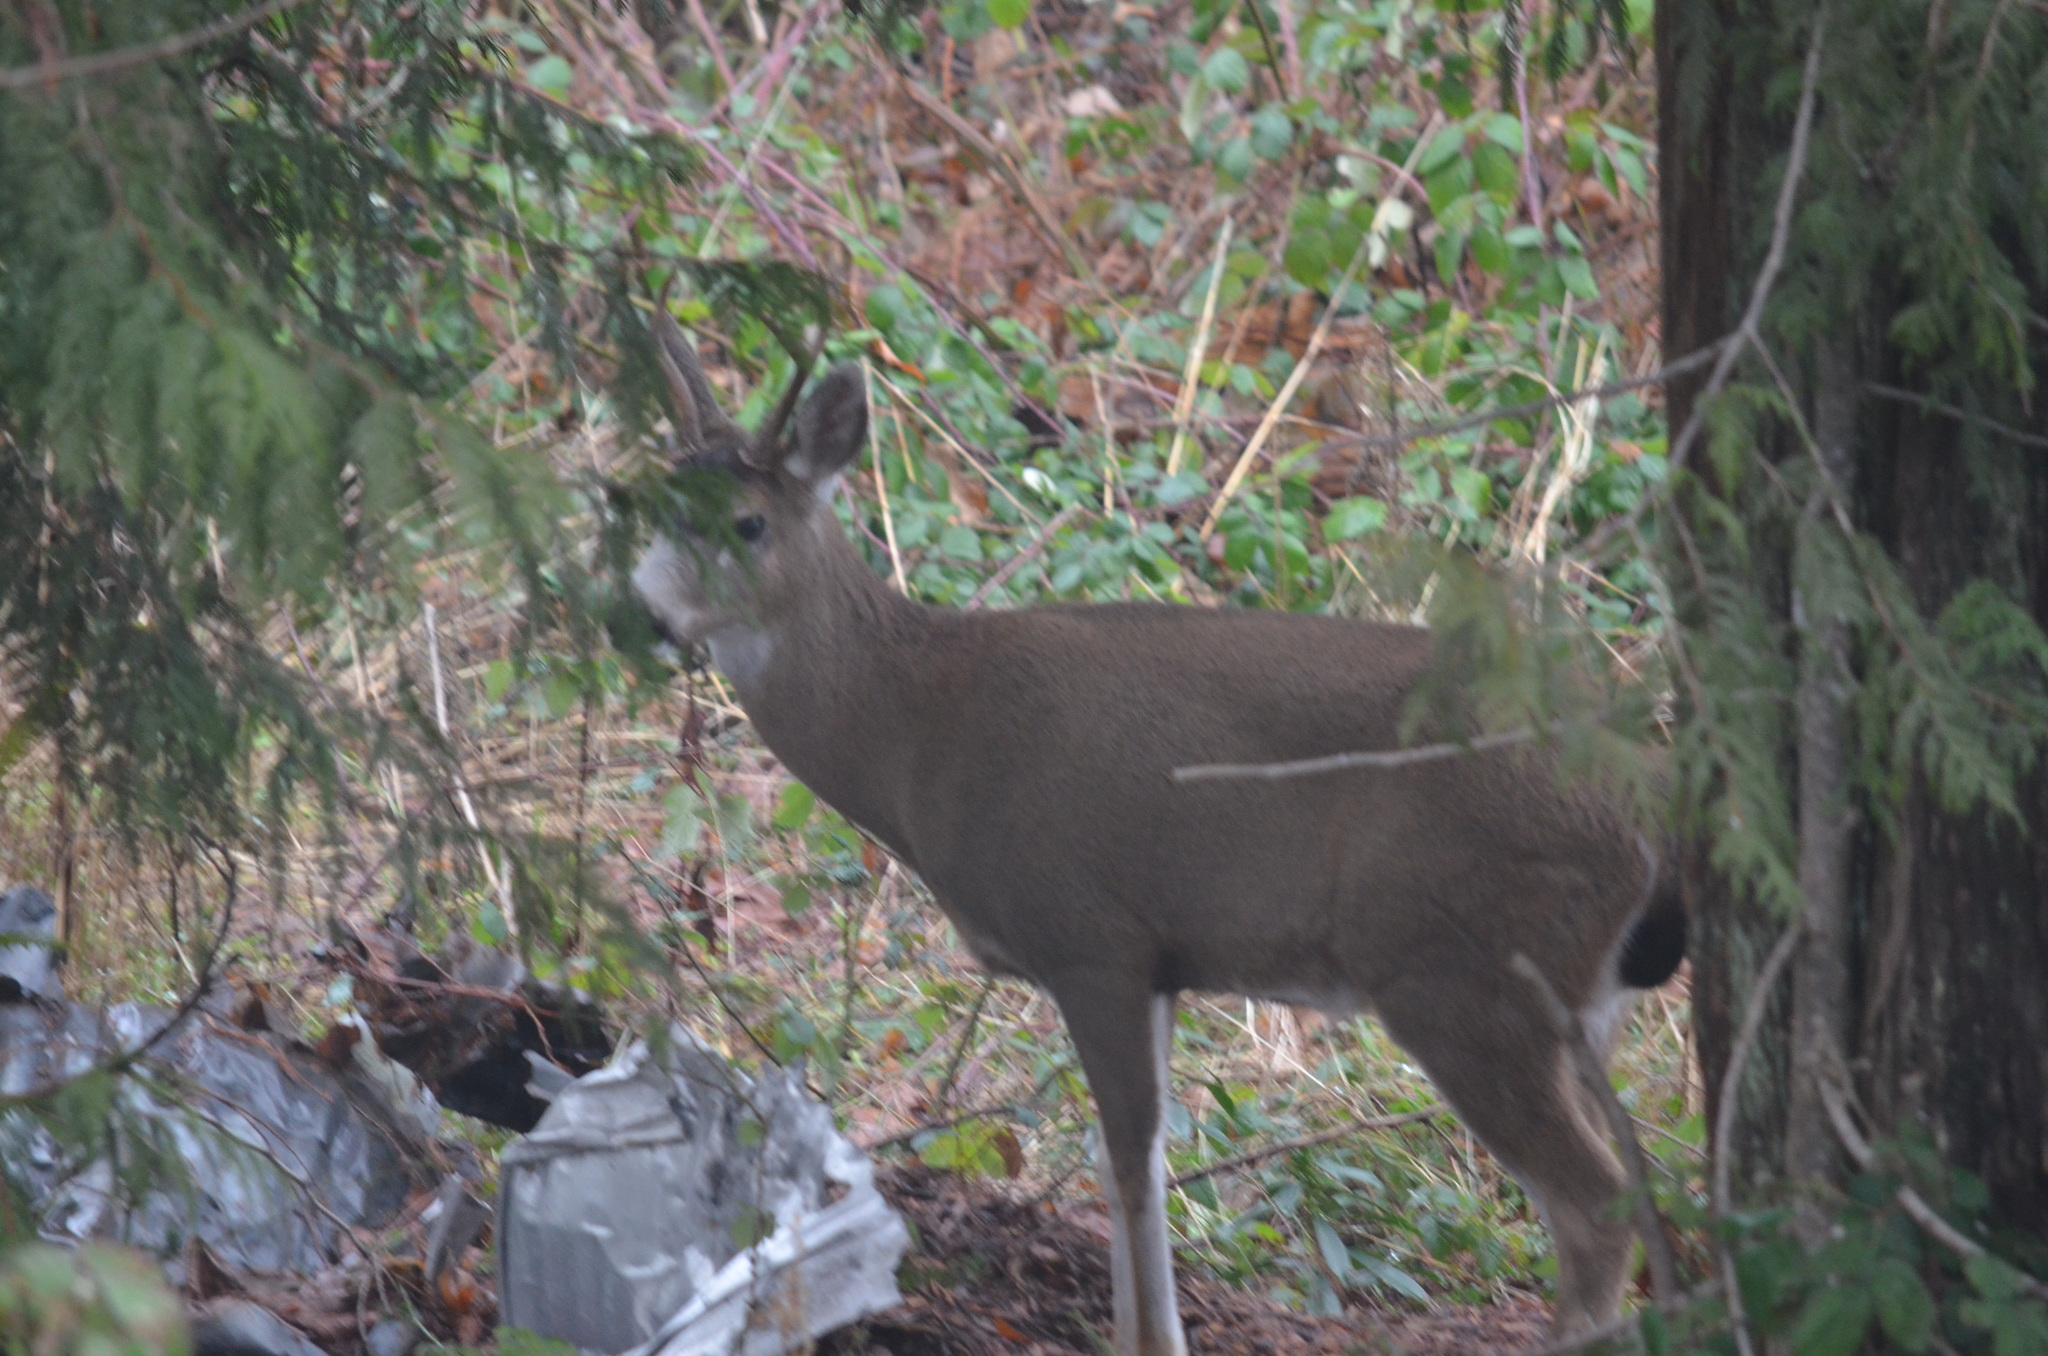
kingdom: Animalia
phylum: Chordata
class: Mammalia
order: Artiodactyla
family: Cervidae
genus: Odocoileus
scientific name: Odocoileus hemionus
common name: Mule deer
